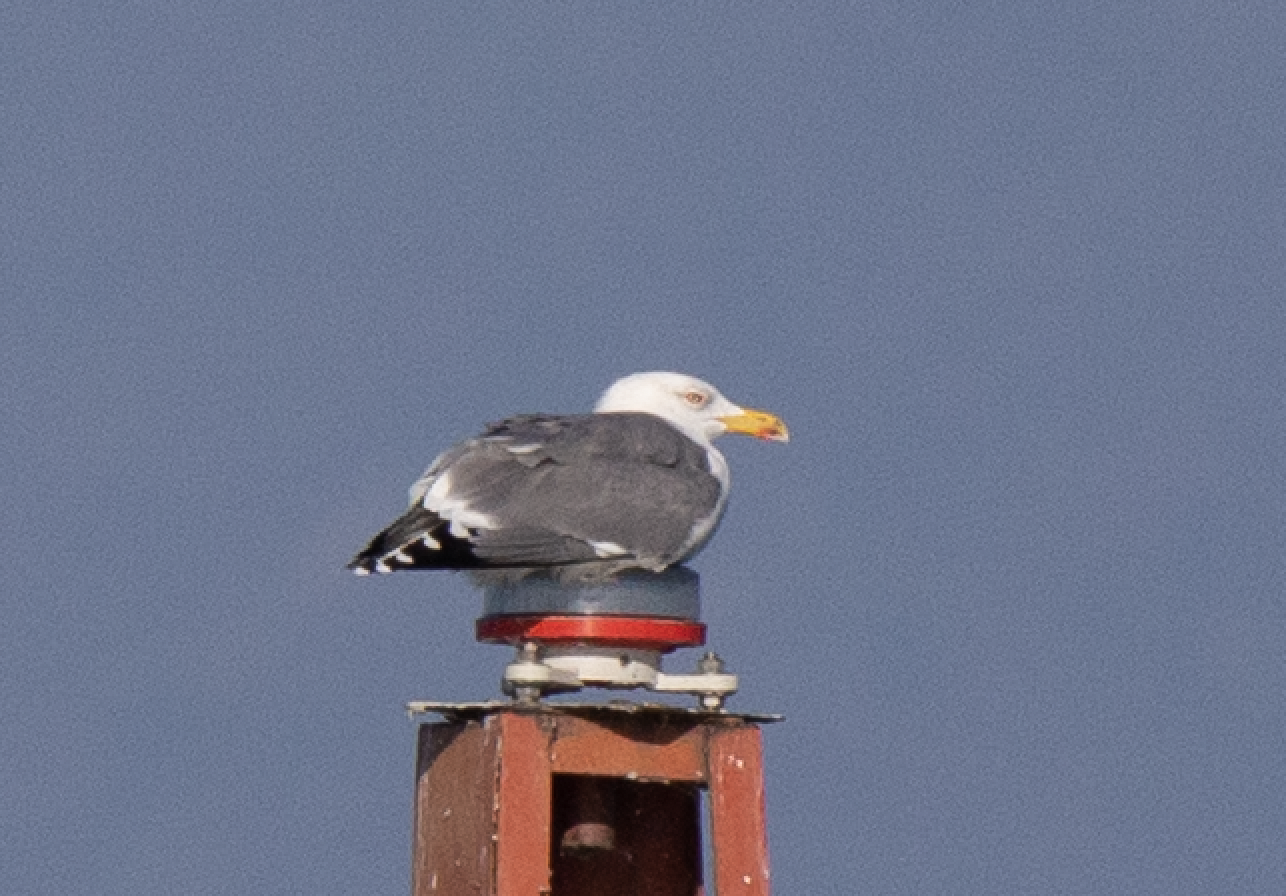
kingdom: Animalia
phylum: Chordata
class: Aves
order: Charadriiformes
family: Laridae
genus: Larus
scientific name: Larus michahellis
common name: Yellow-legged gull
